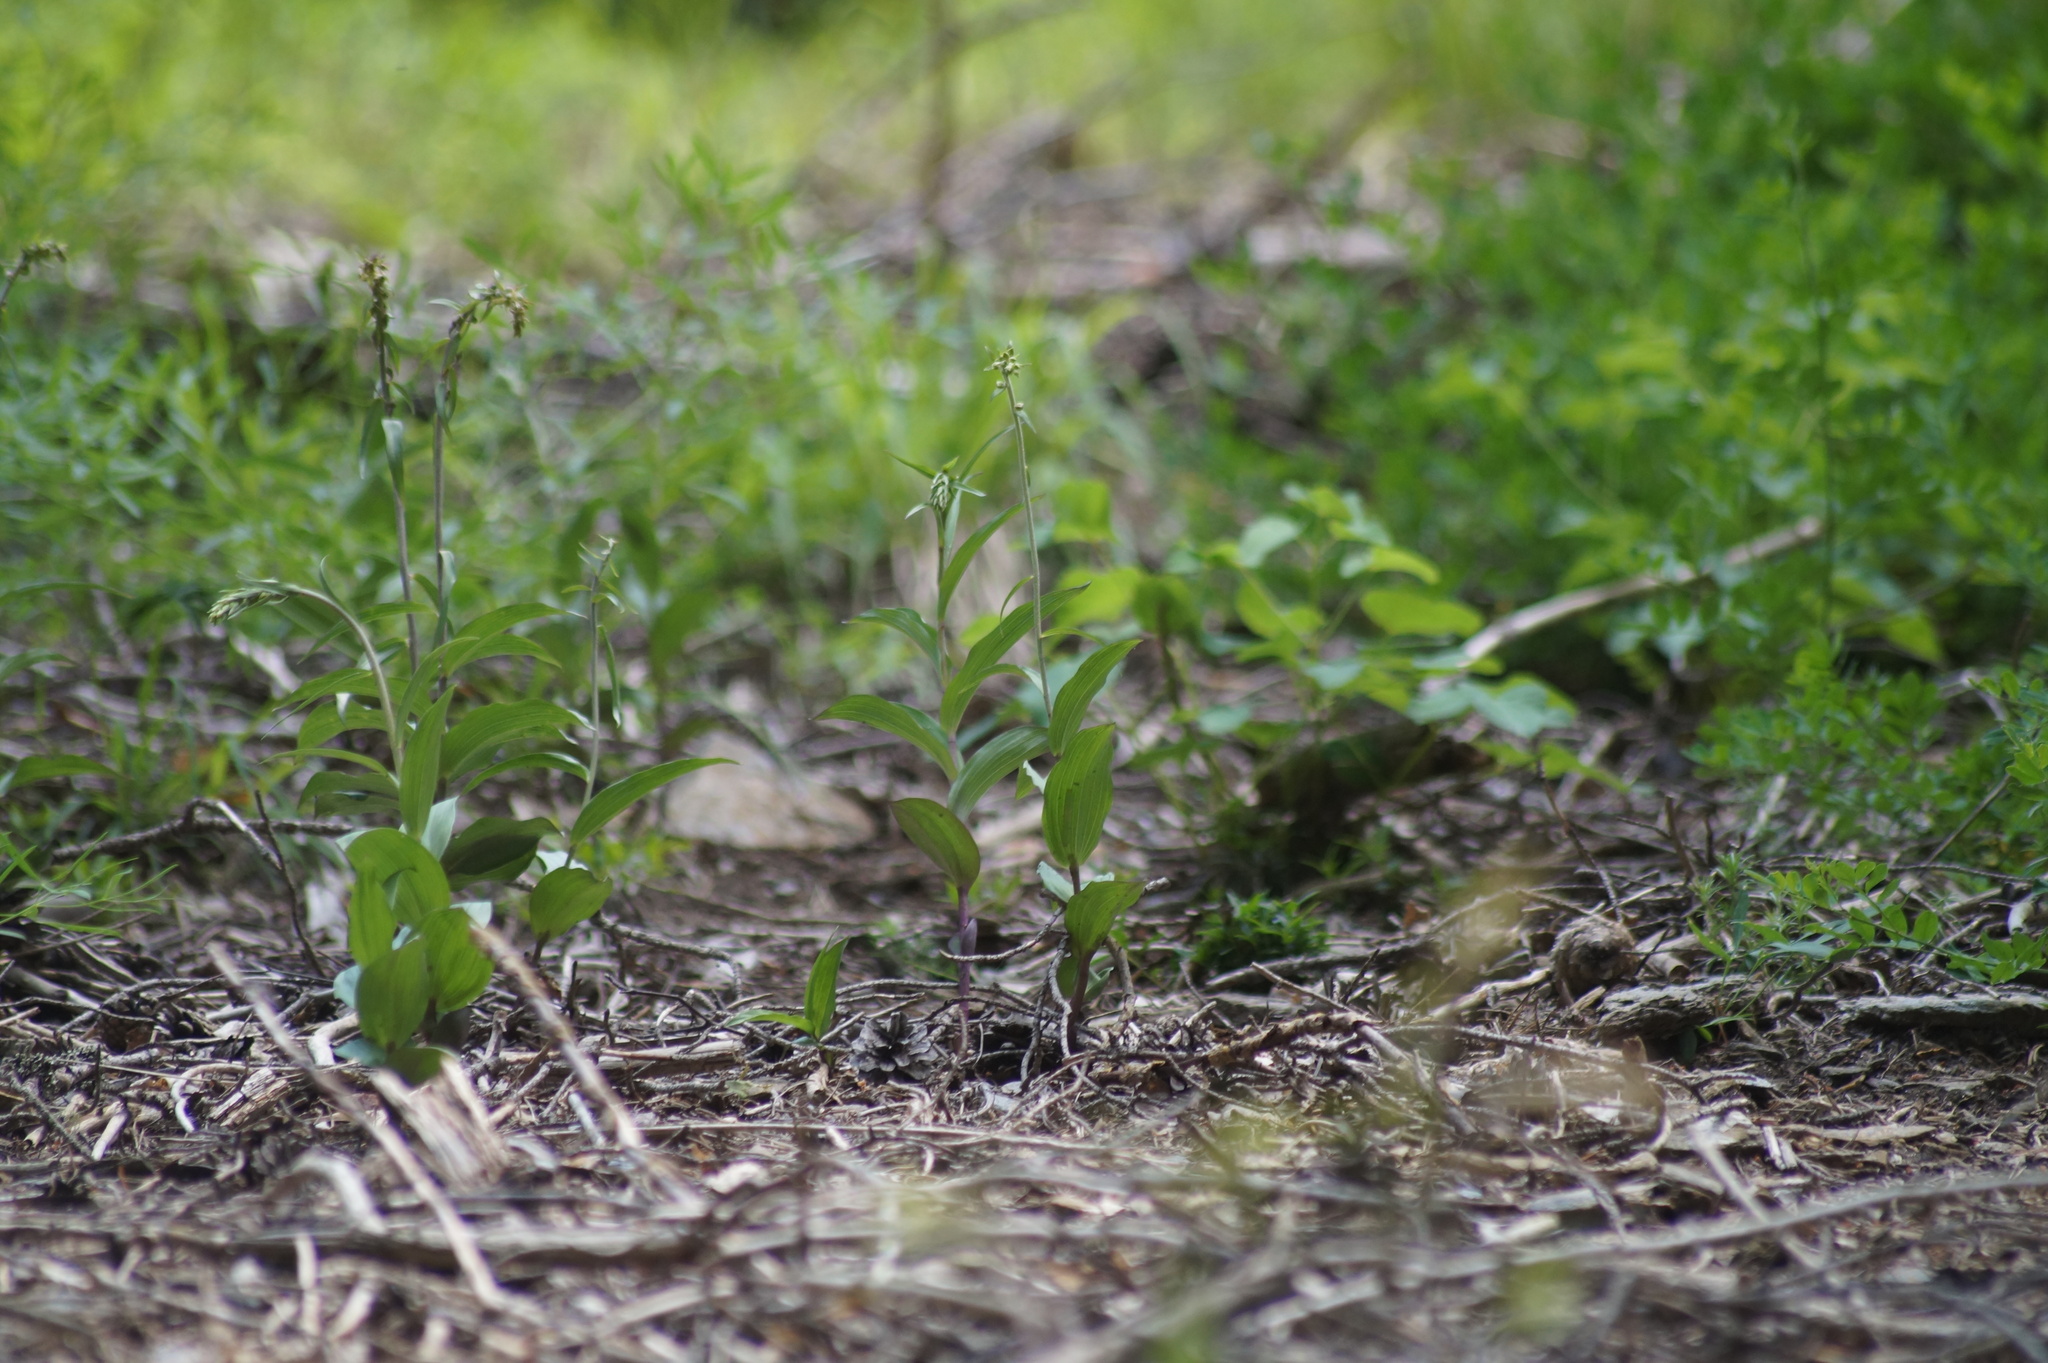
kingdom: Plantae
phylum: Tracheophyta
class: Liliopsida
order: Asparagales
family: Orchidaceae
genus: Epipactis
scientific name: Epipactis atrorubens
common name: Dark-red helleborine
